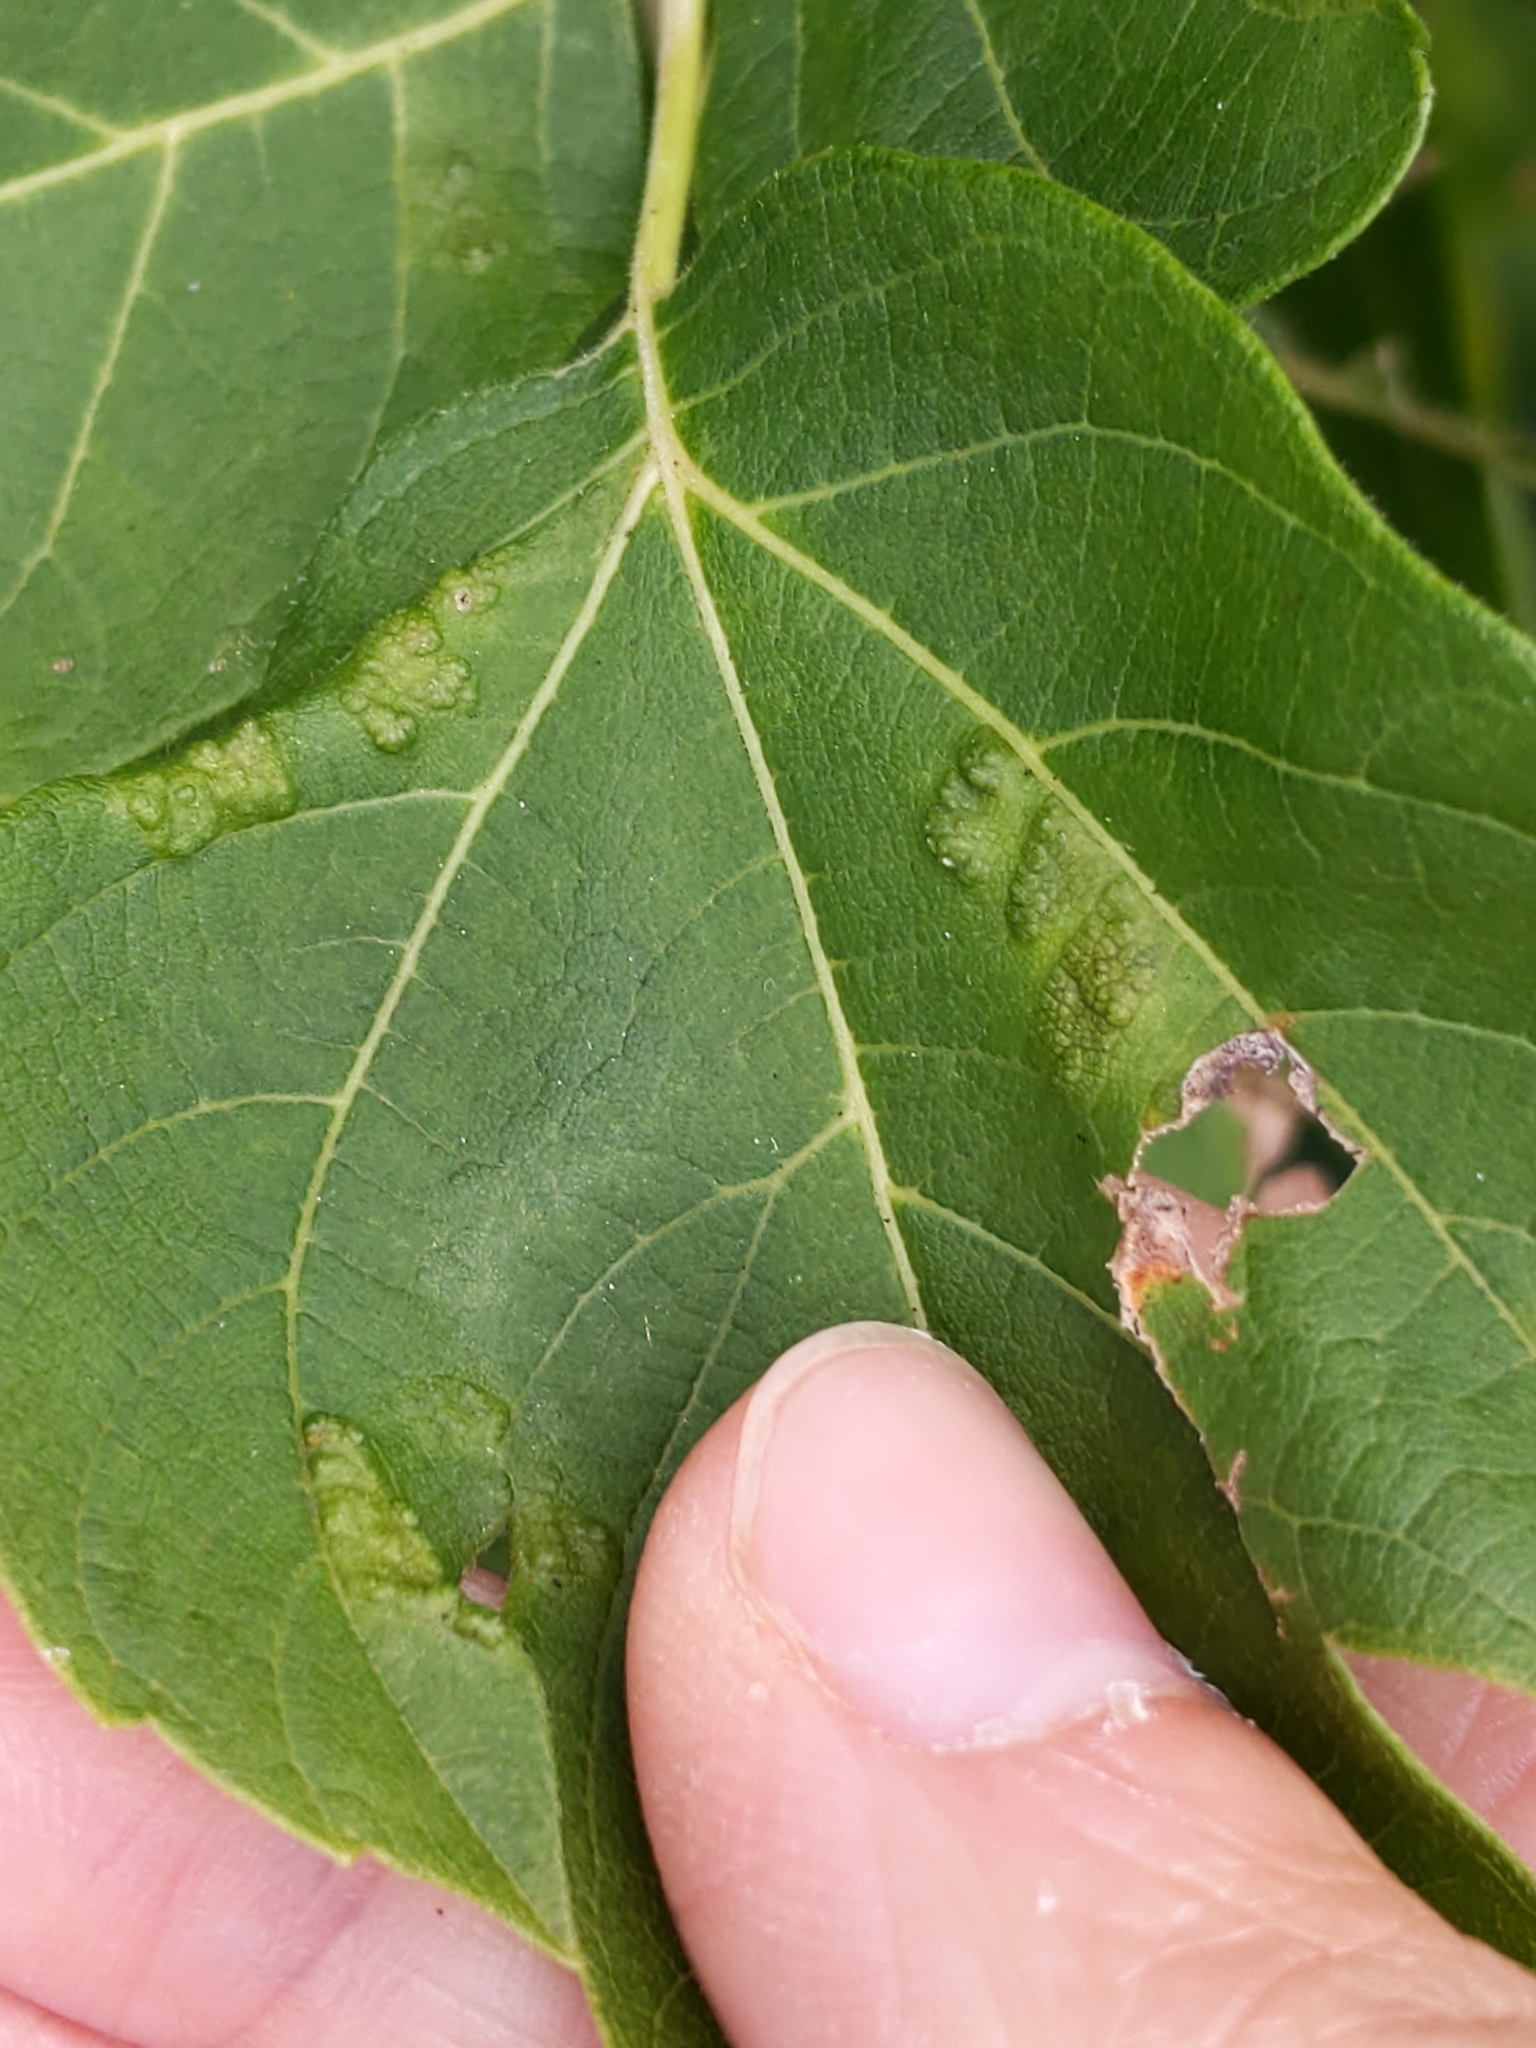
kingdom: Animalia
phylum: Arthropoda
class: Arachnida
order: Trombidiformes
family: Eriophyidae
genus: Aceria
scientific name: Aceria
